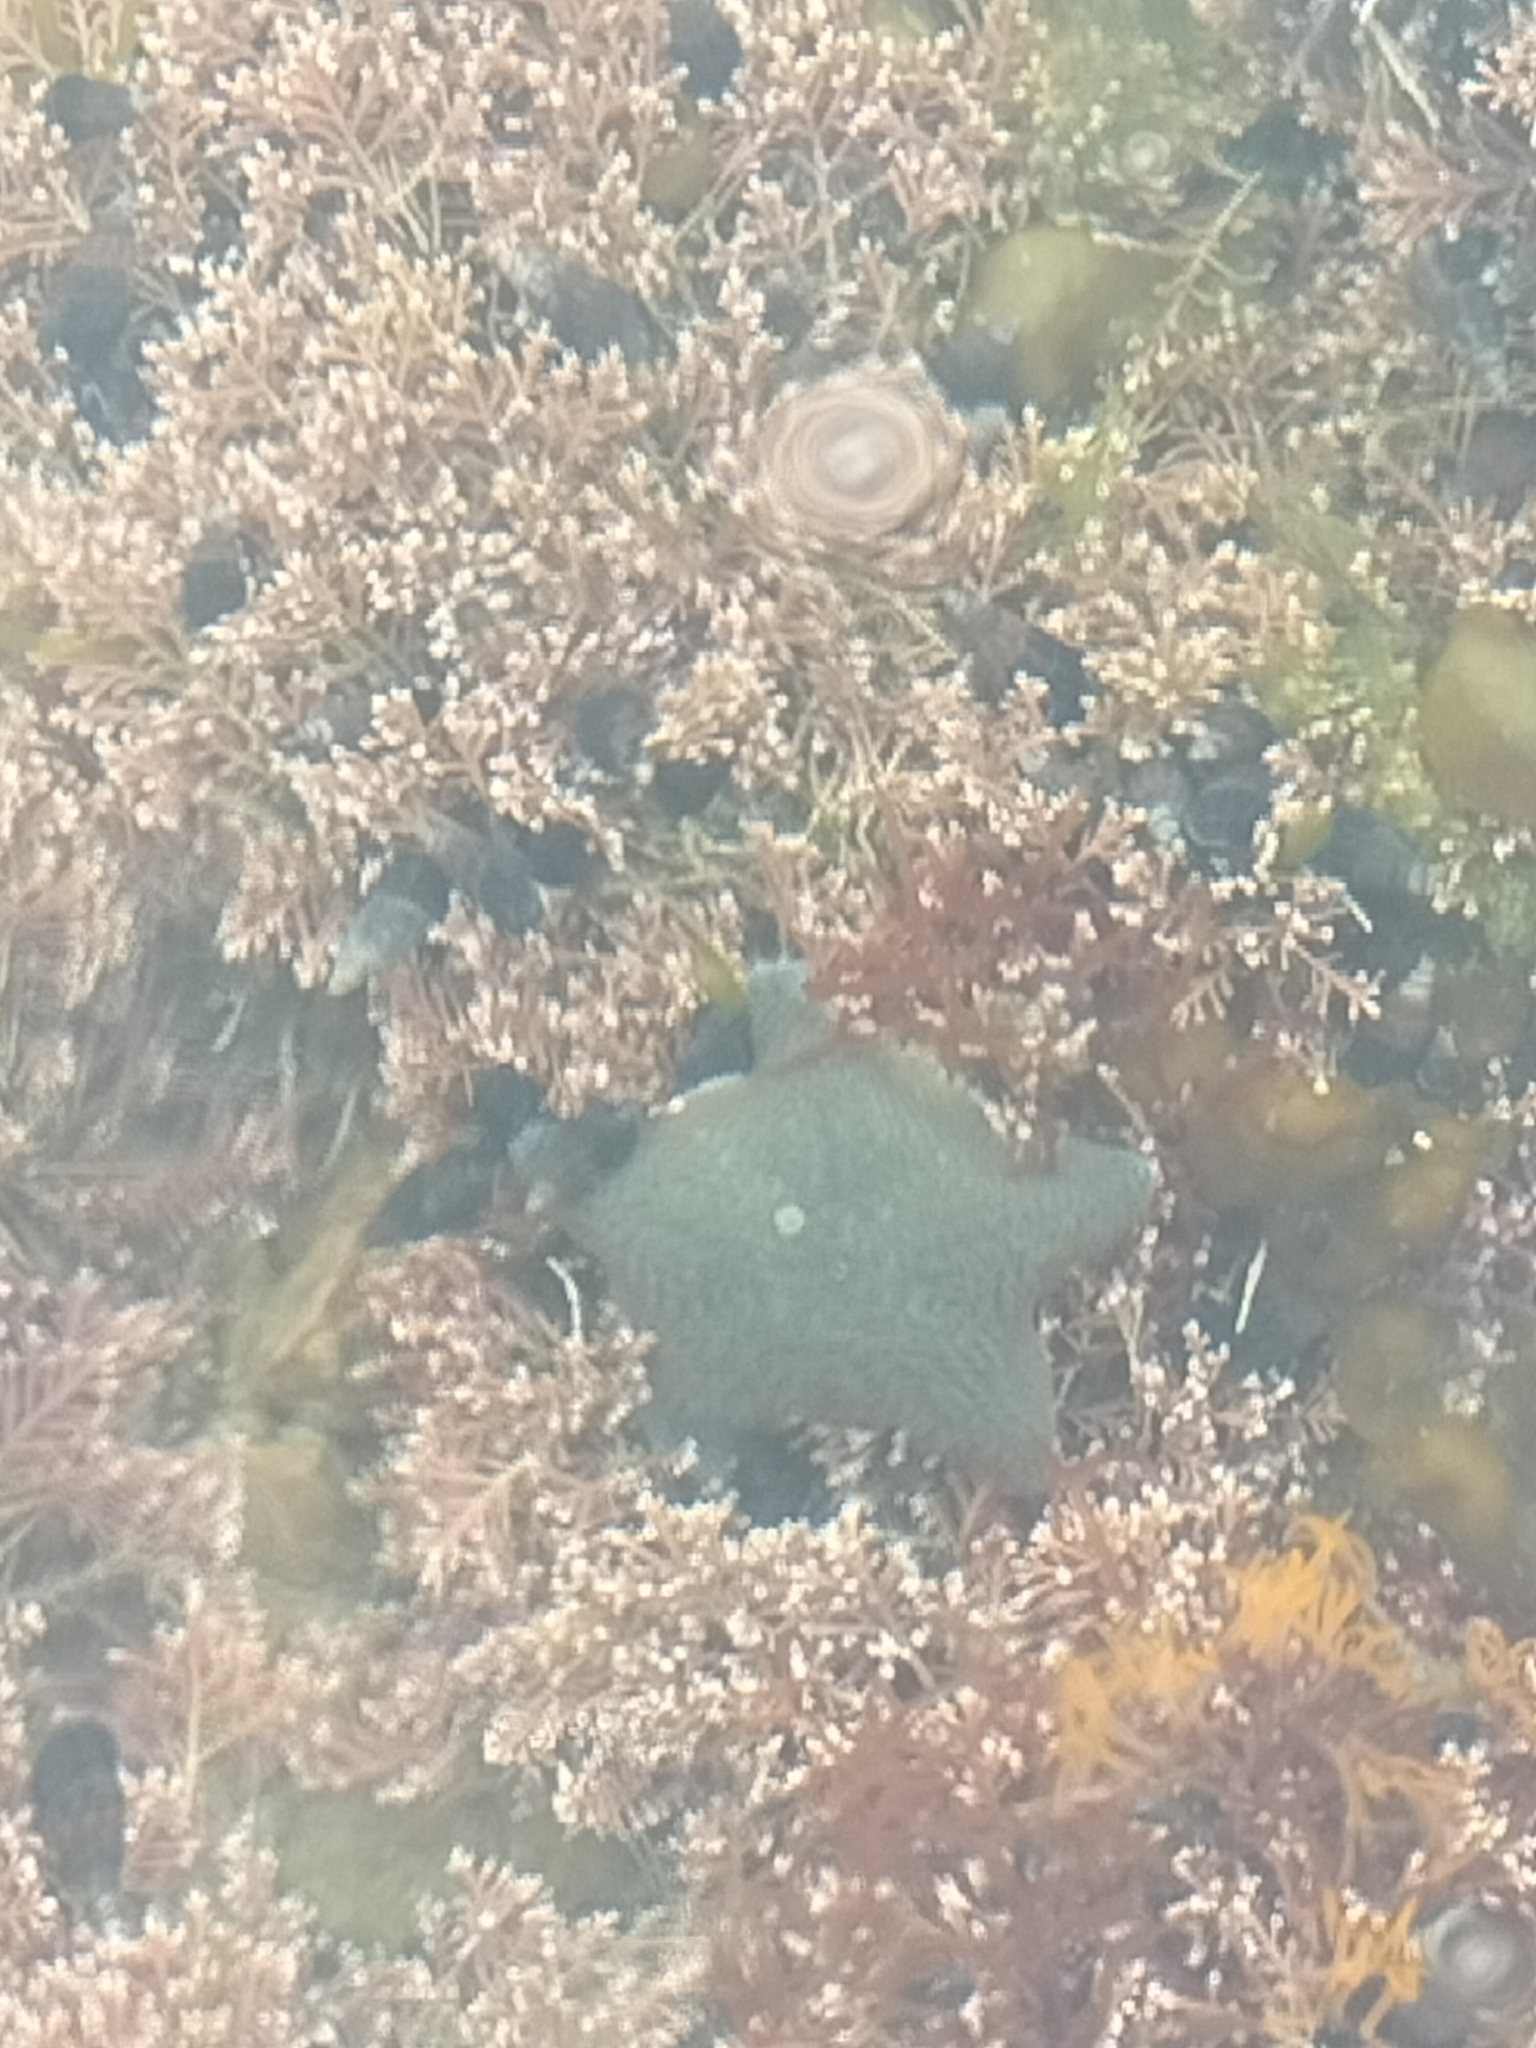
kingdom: Animalia
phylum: Echinodermata
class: Asteroidea
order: Valvatida
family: Asterinidae
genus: Patiriella
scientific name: Patiriella regularis
